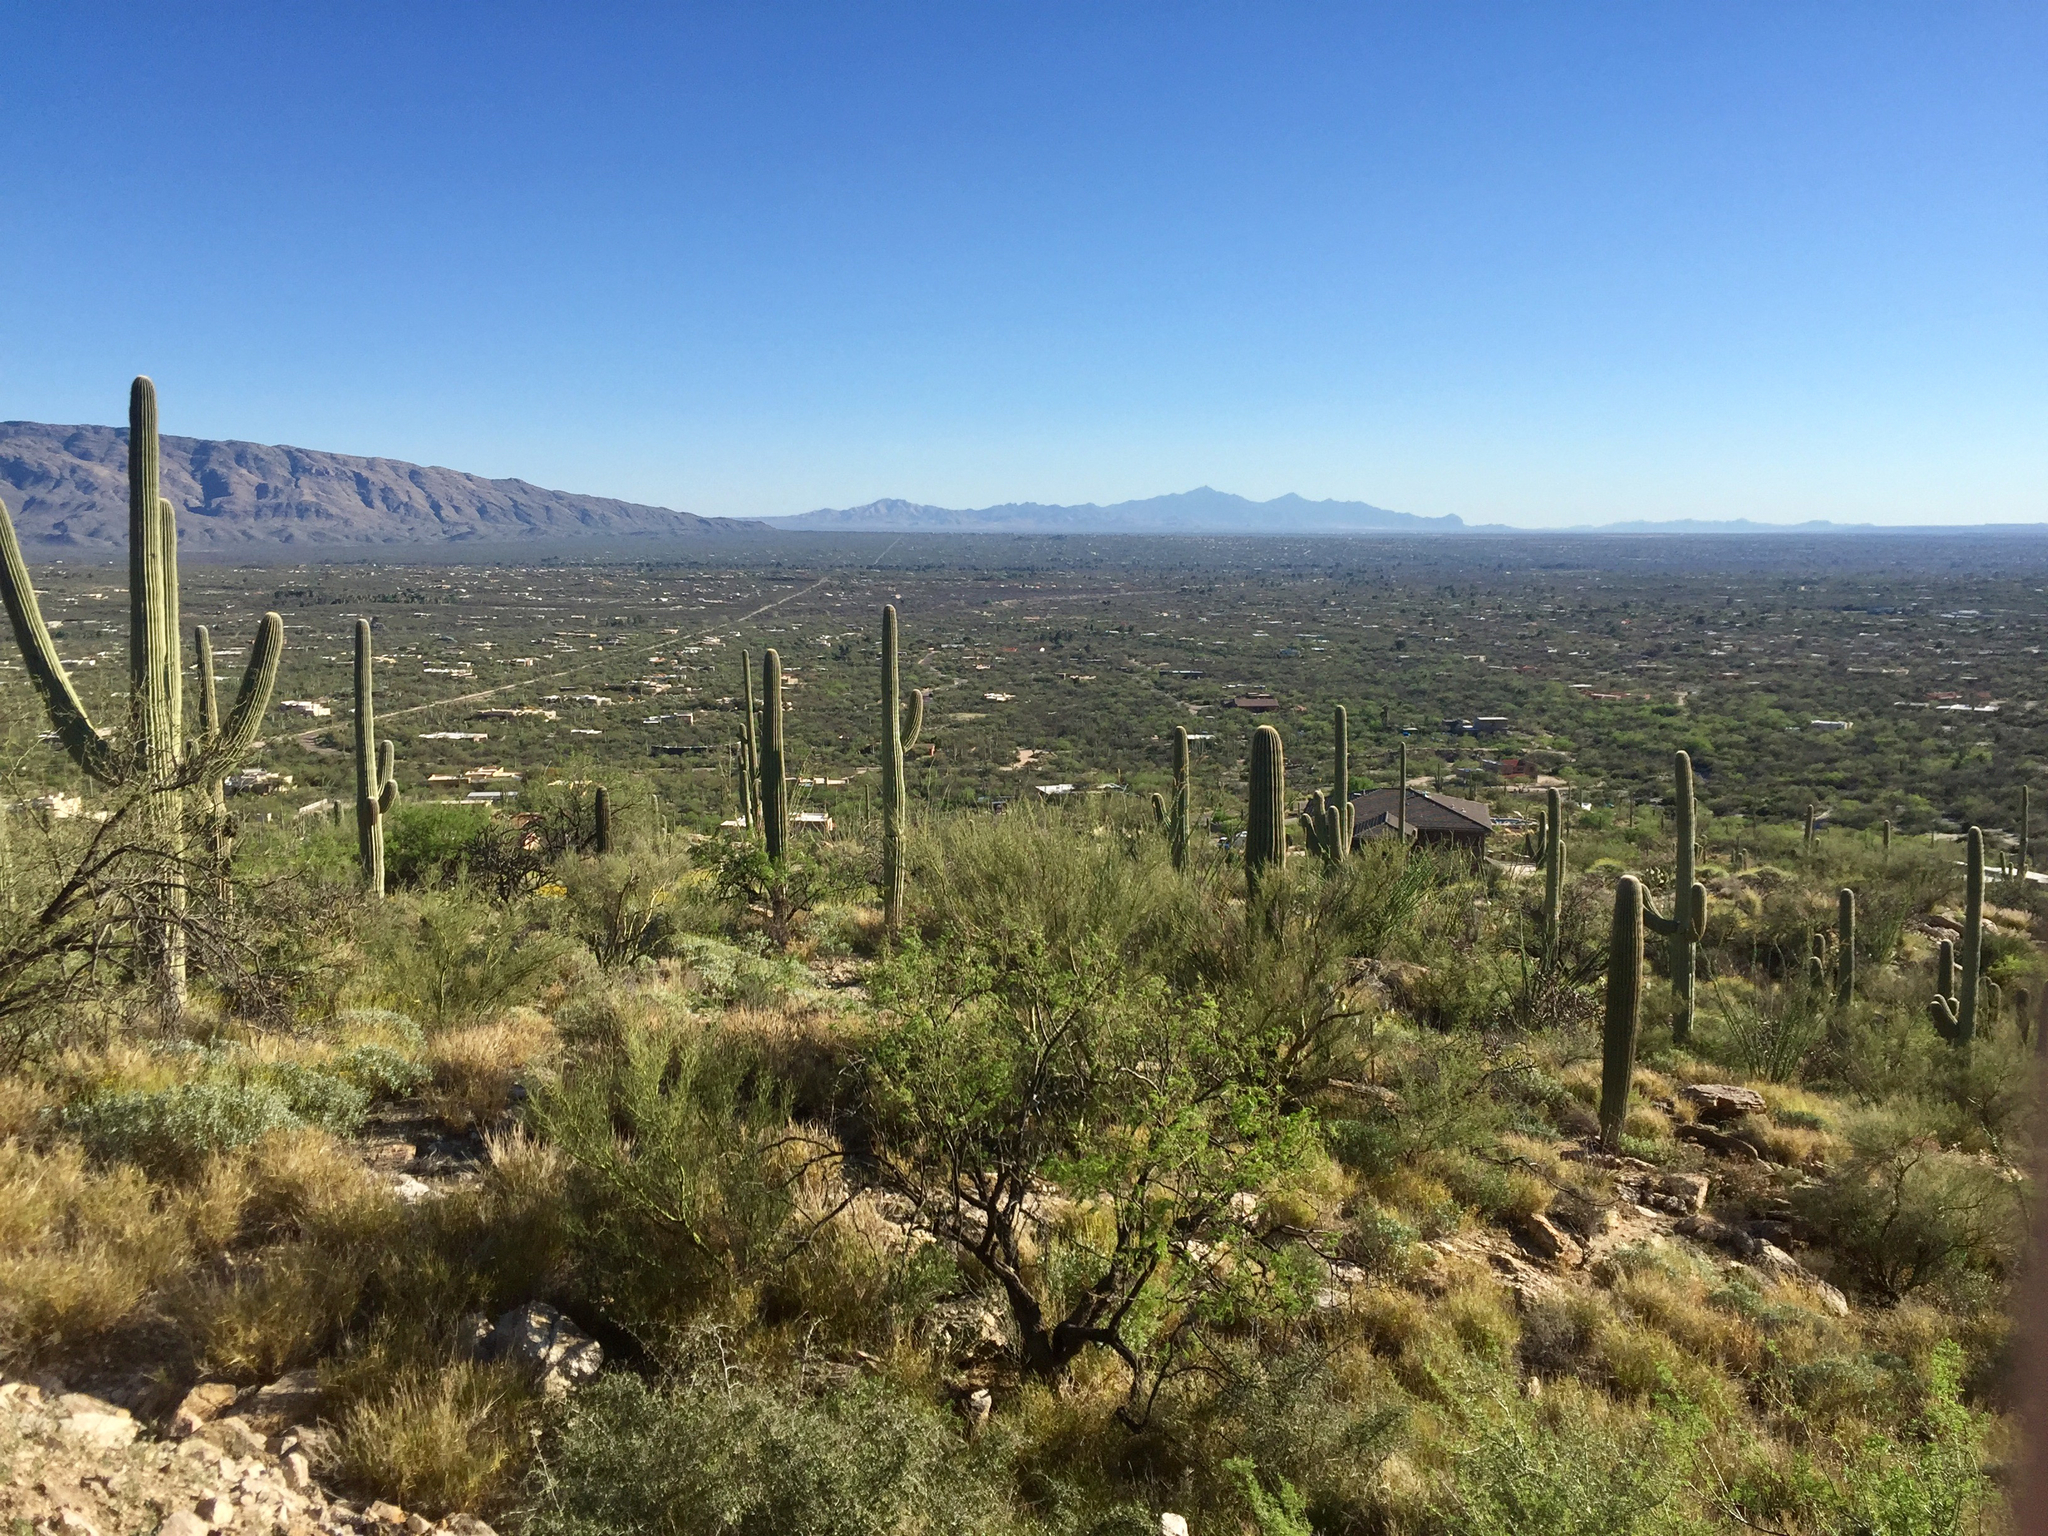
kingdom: Plantae
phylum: Tracheophyta
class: Magnoliopsida
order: Caryophyllales
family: Cactaceae
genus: Carnegiea
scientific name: Carnegiea gigantea
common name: Saguaro
